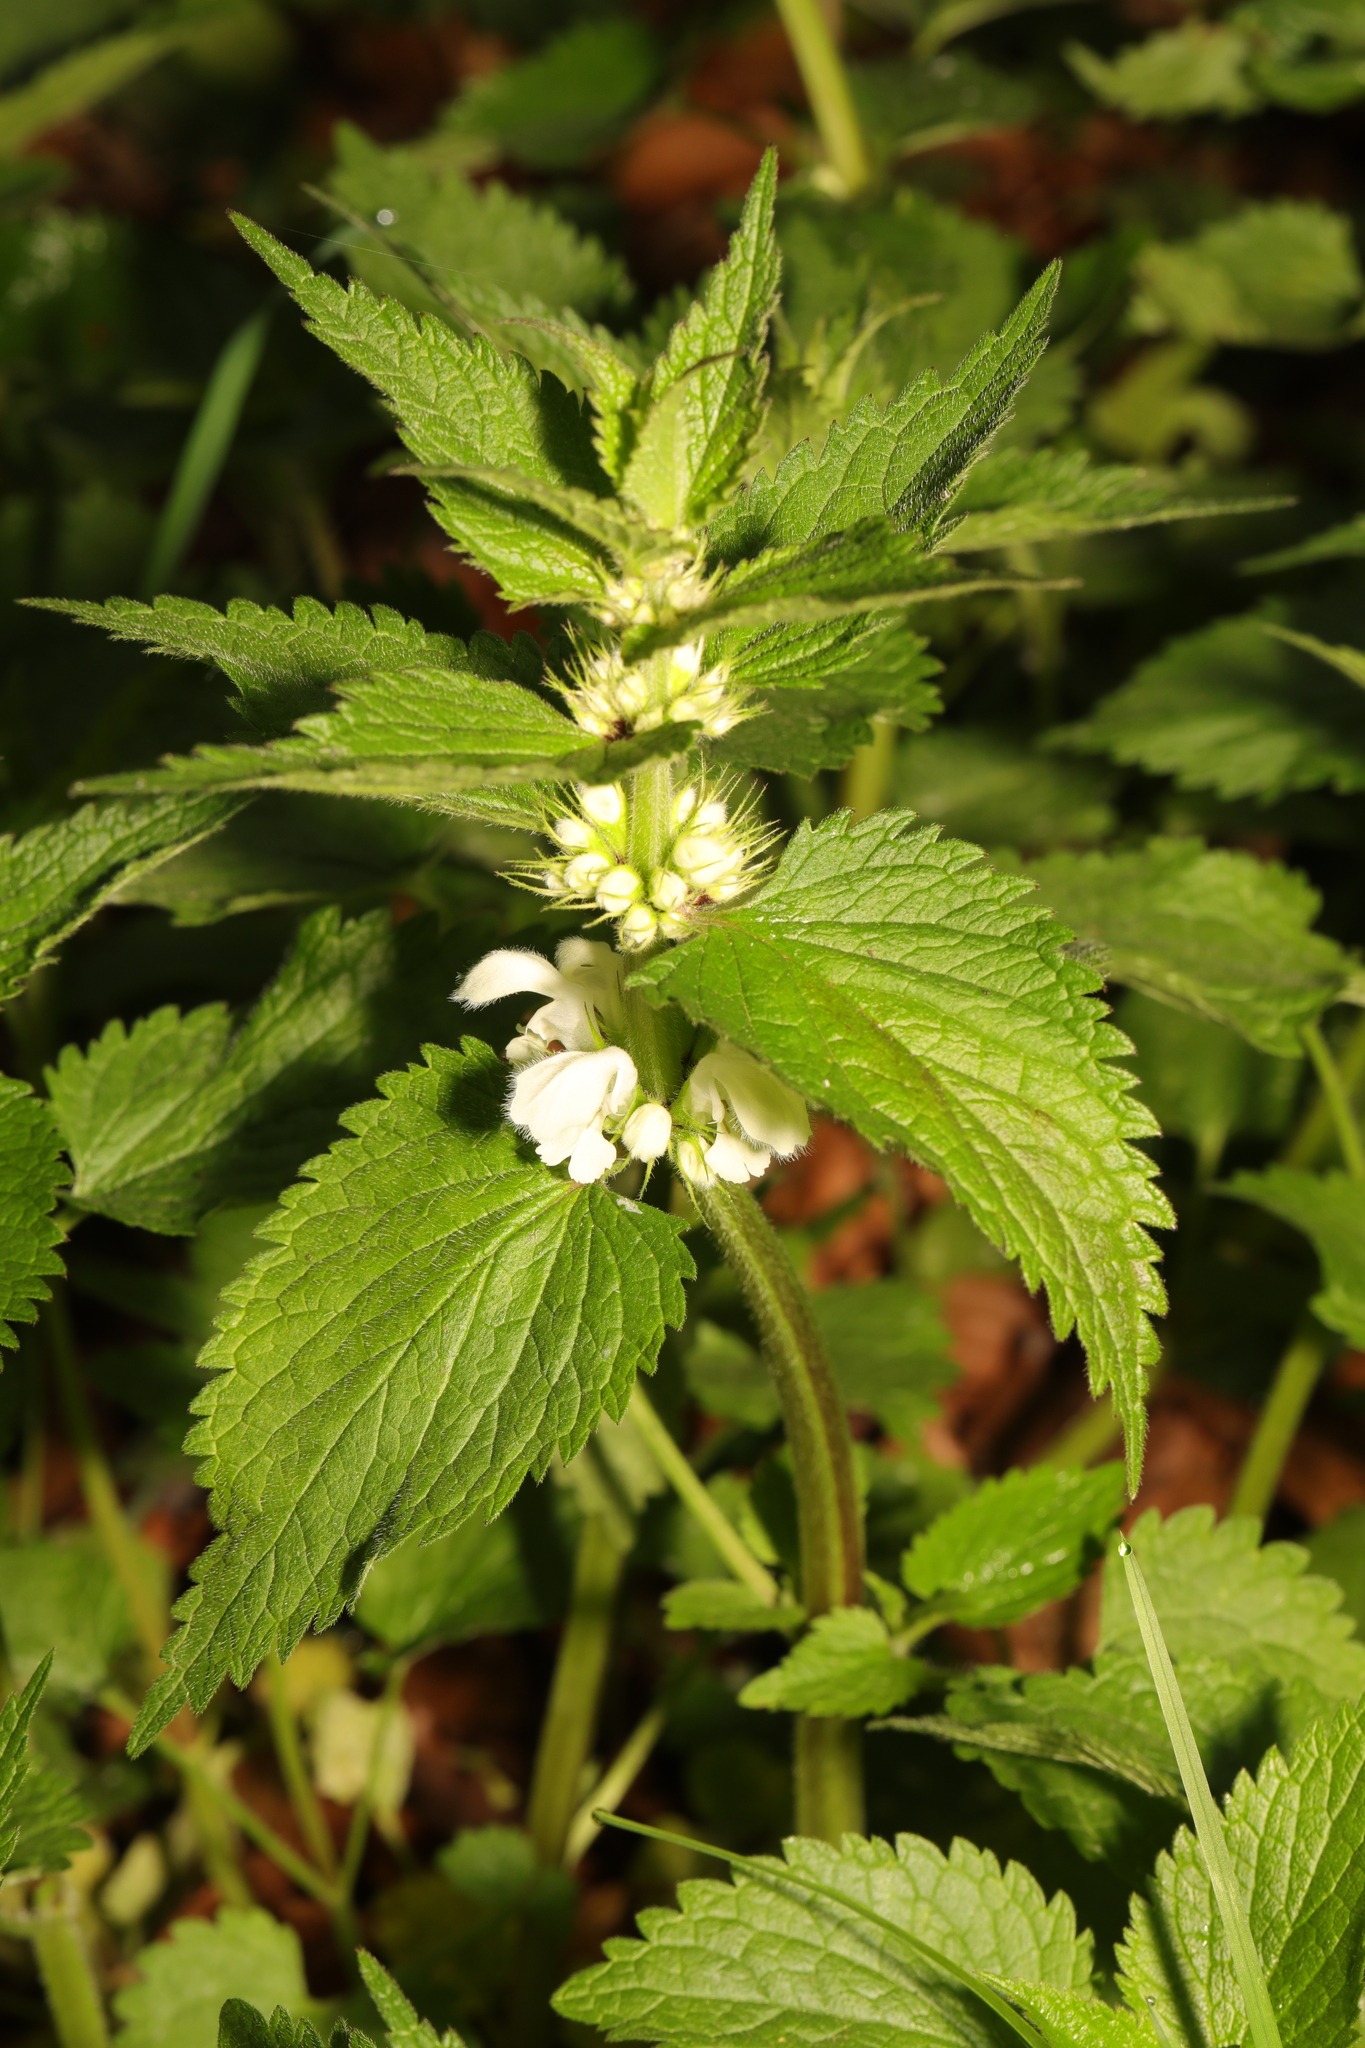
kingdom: Plantae
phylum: Tracheophyta
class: Magnoliopsida
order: Lamiales
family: Lamiaceae
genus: Lamium
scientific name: Lamium album
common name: White dead-nettle
